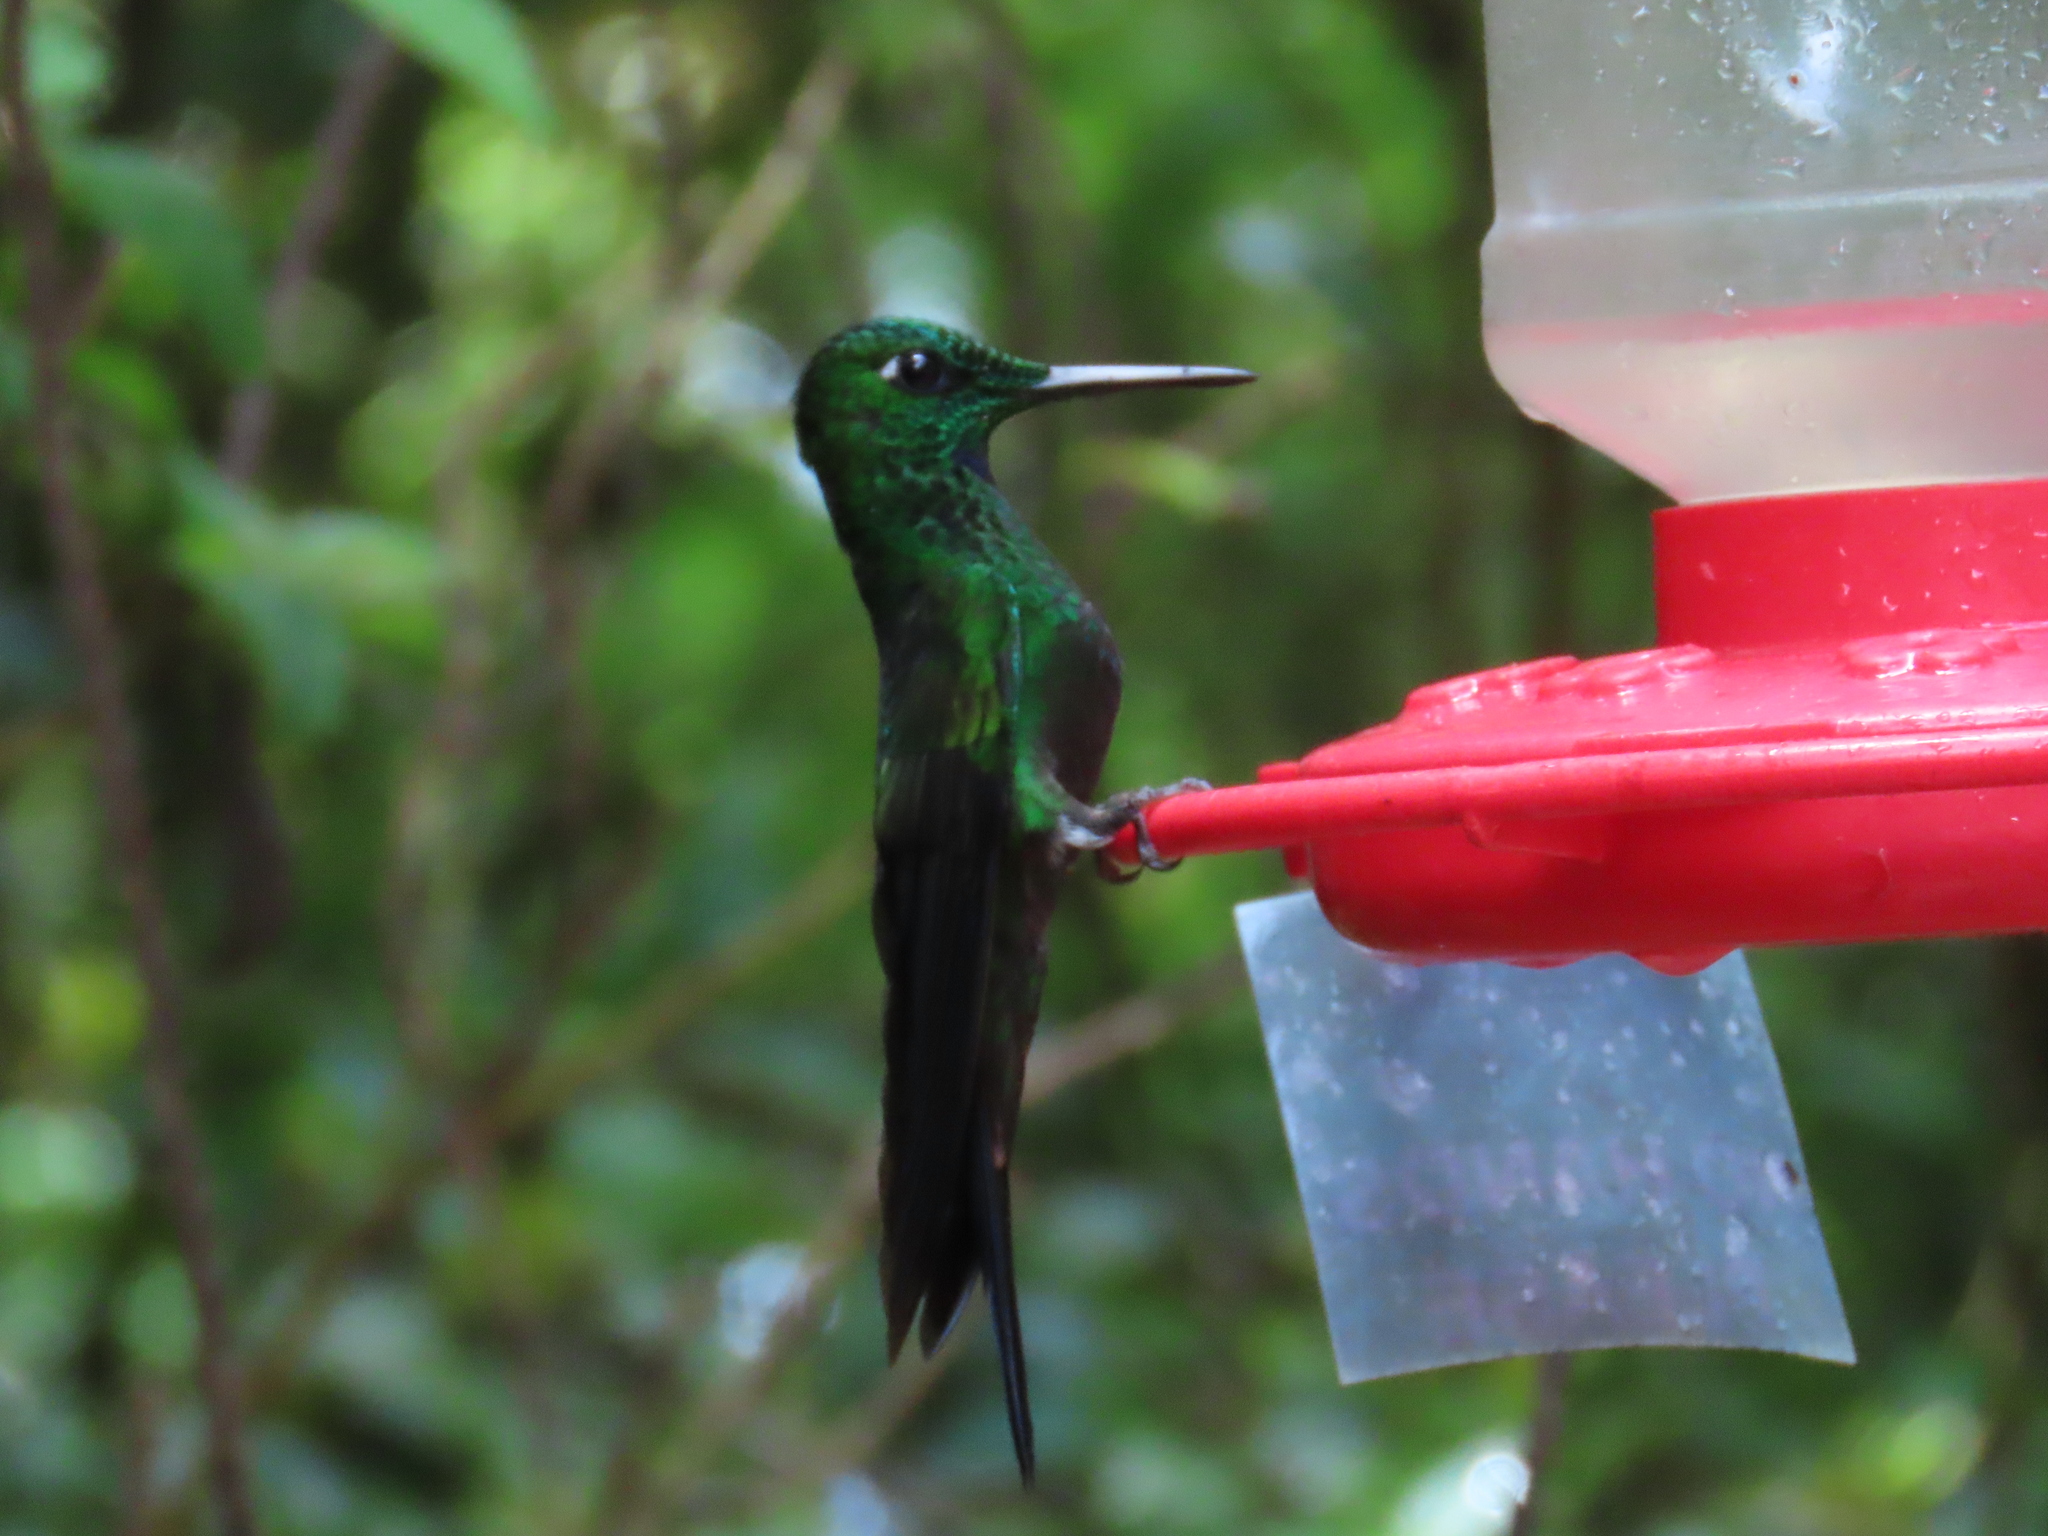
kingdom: Animalia
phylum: Chordata
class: Aves
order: Apodiformes
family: Trochilidae
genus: Heliodoxa
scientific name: Heliodoxa jacula
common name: Green-crowned brilliant
